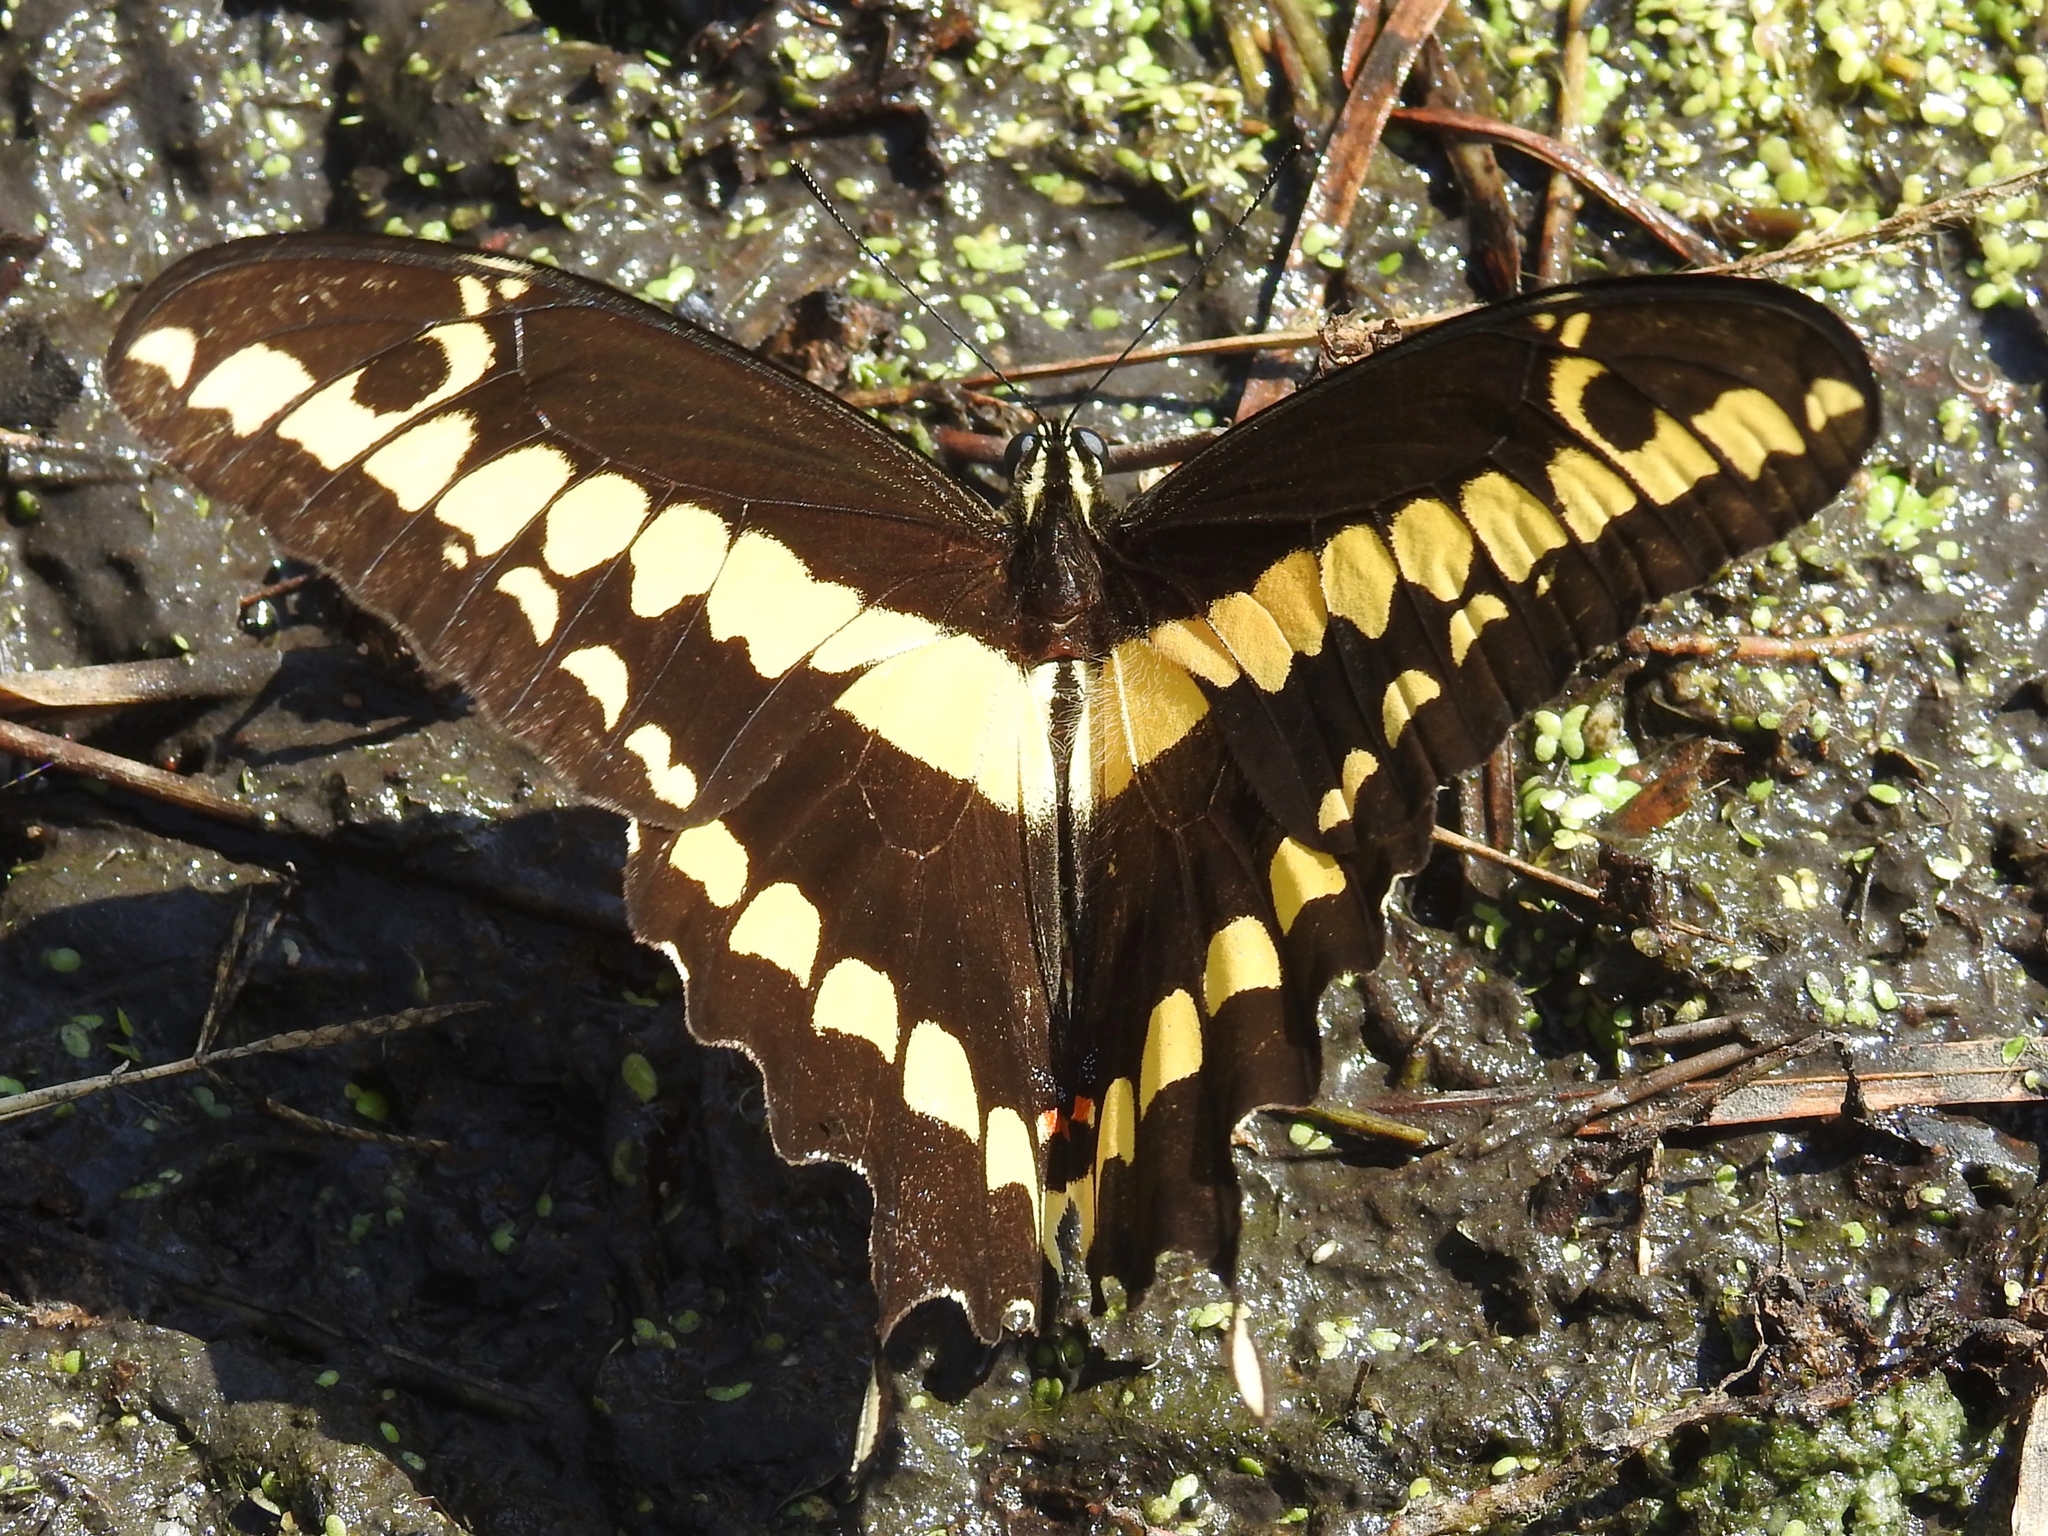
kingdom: Animalia
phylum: Arthropoda
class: Insecta
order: Lepidoptera
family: Papilionidae
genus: Papilio
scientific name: Papilio rumiko
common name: Western giant swallowtail
